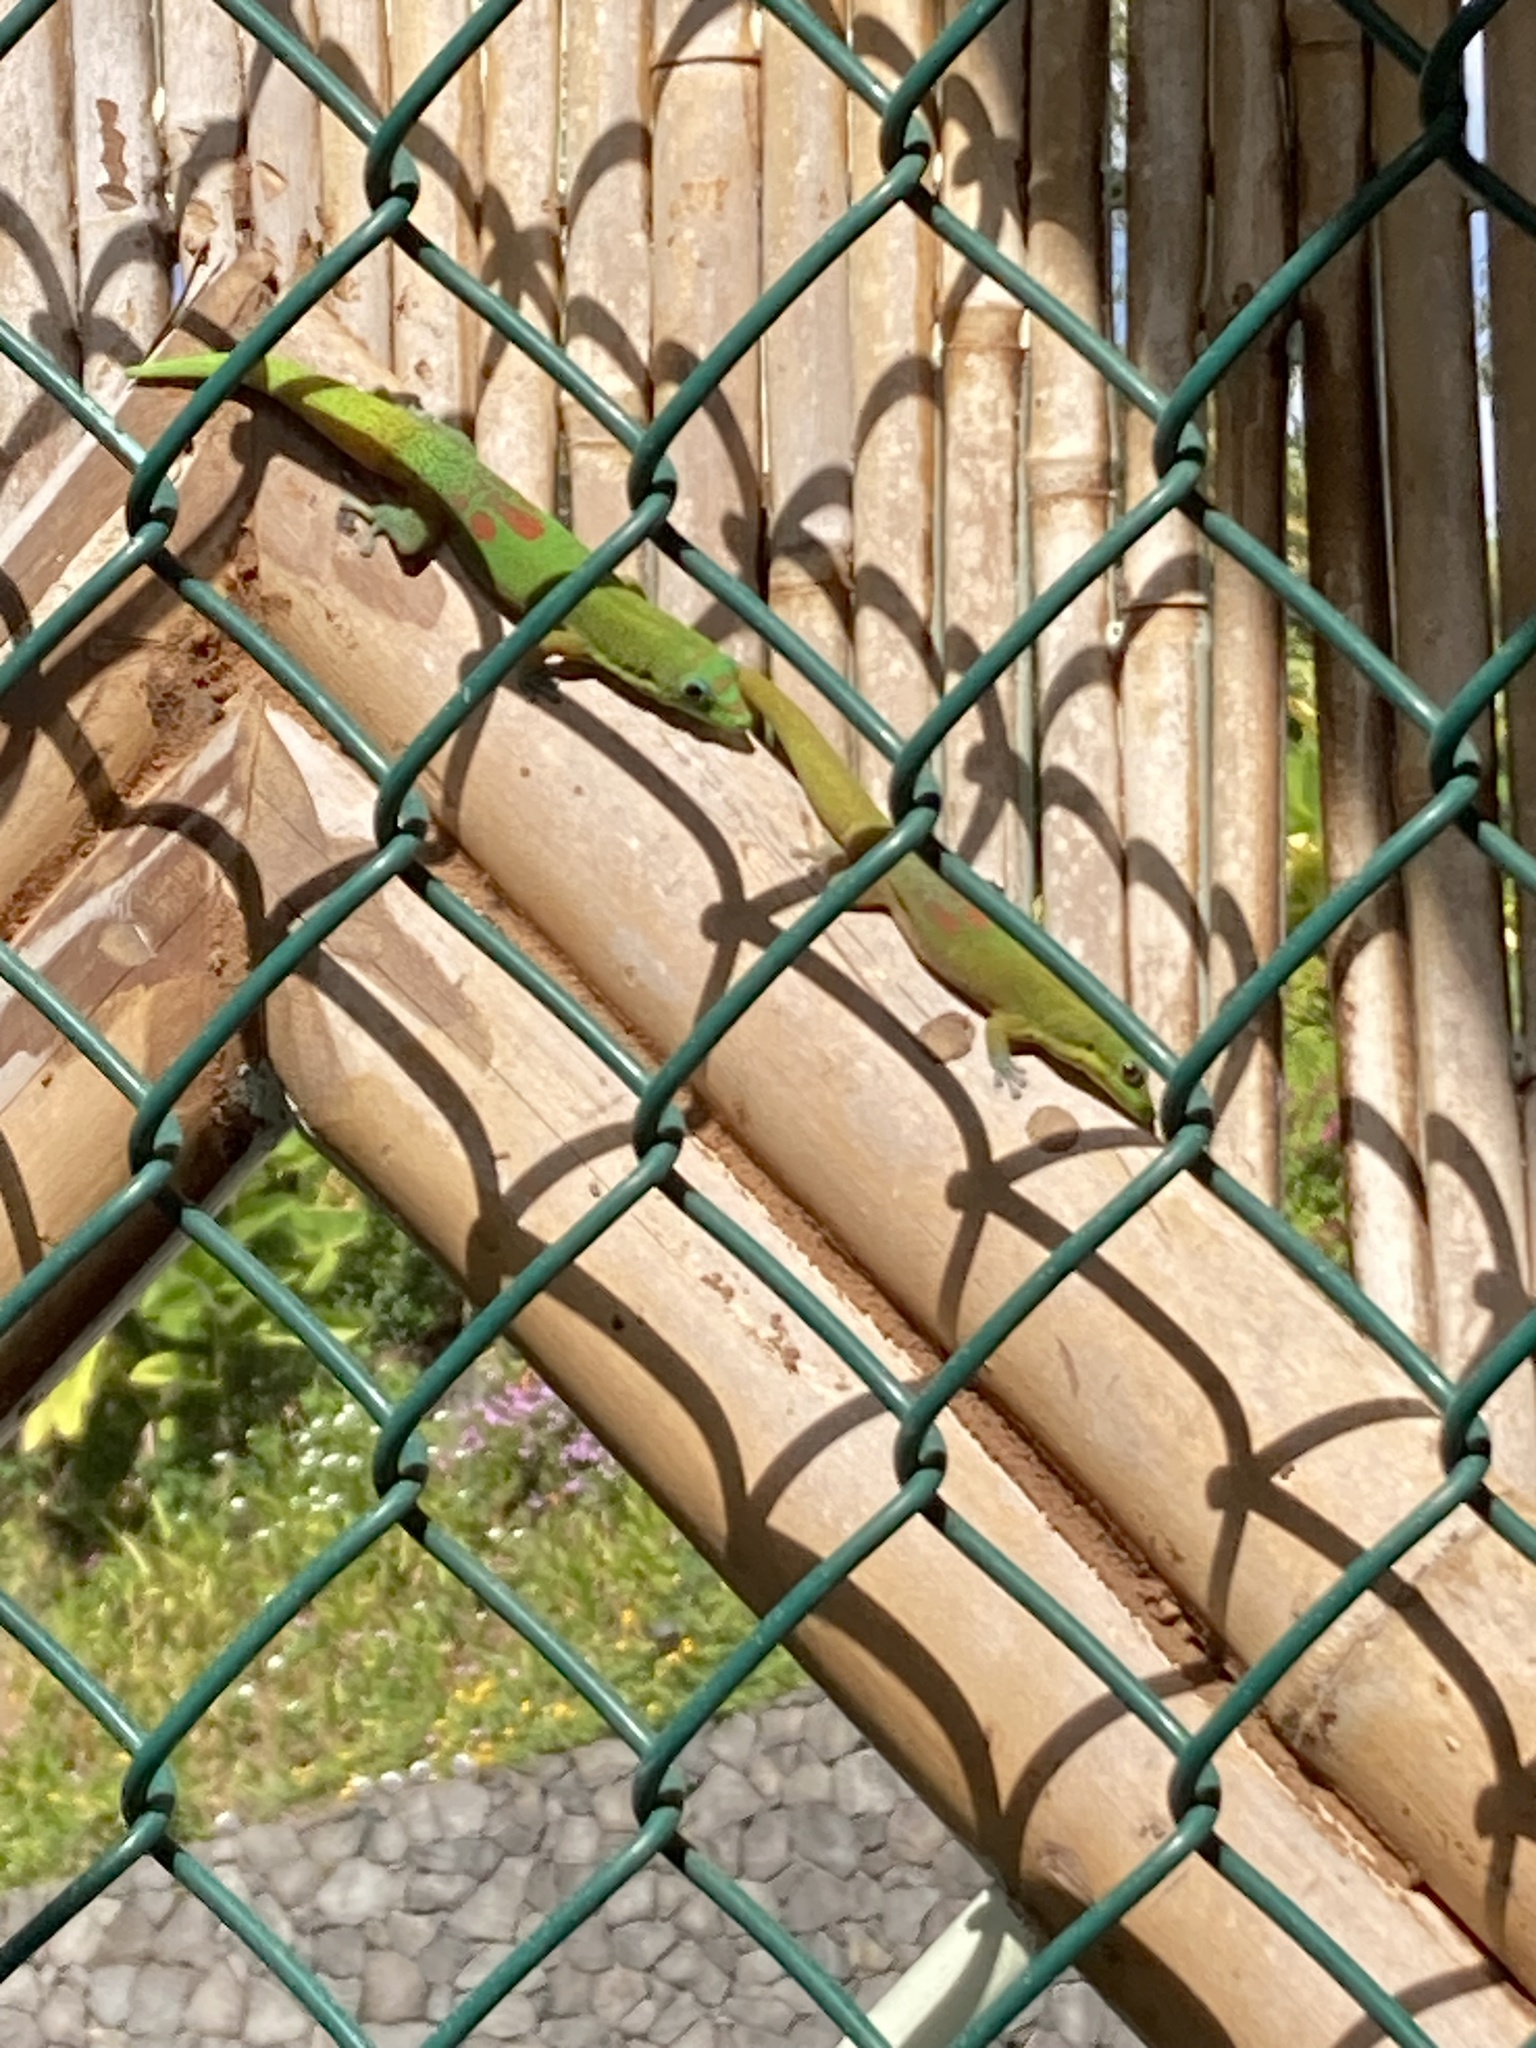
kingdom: Animalia
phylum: Chordata
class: Squamata
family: Gekkonidae
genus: Phelsuma
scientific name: Phelsuma laticauda
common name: Gold dust day gecko
